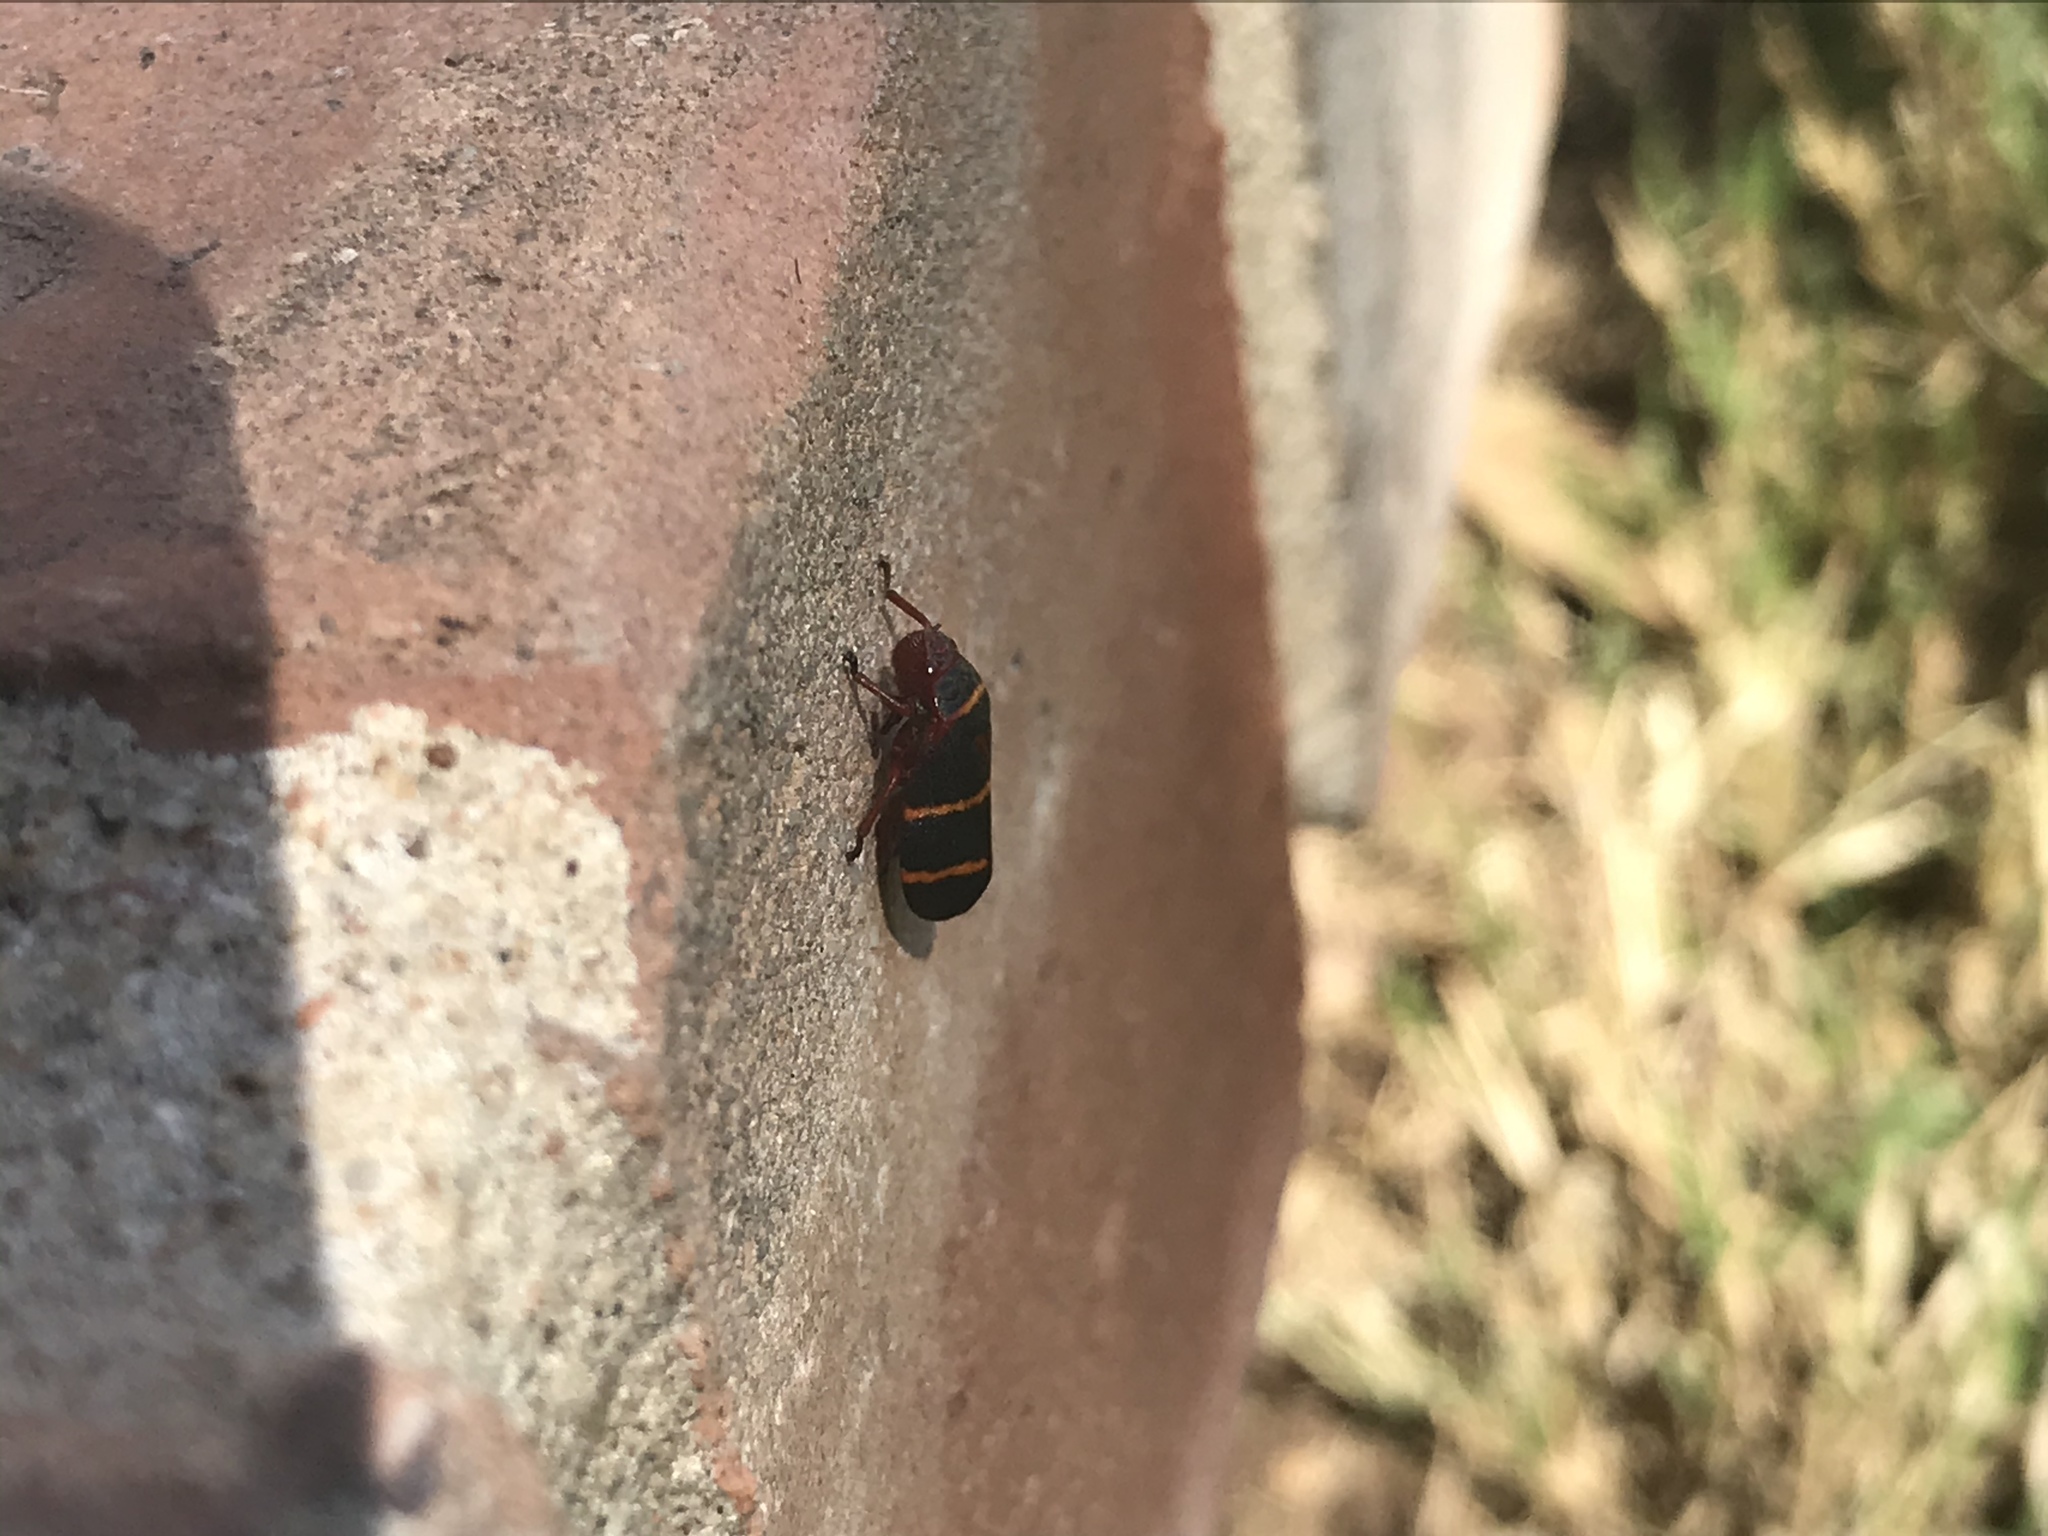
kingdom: Animalia
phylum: Arthropoda
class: Insecta
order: Hemiptera
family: Cercopidae
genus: Prosapia
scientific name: Prosapia bicincta
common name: Twolined spittlebug
